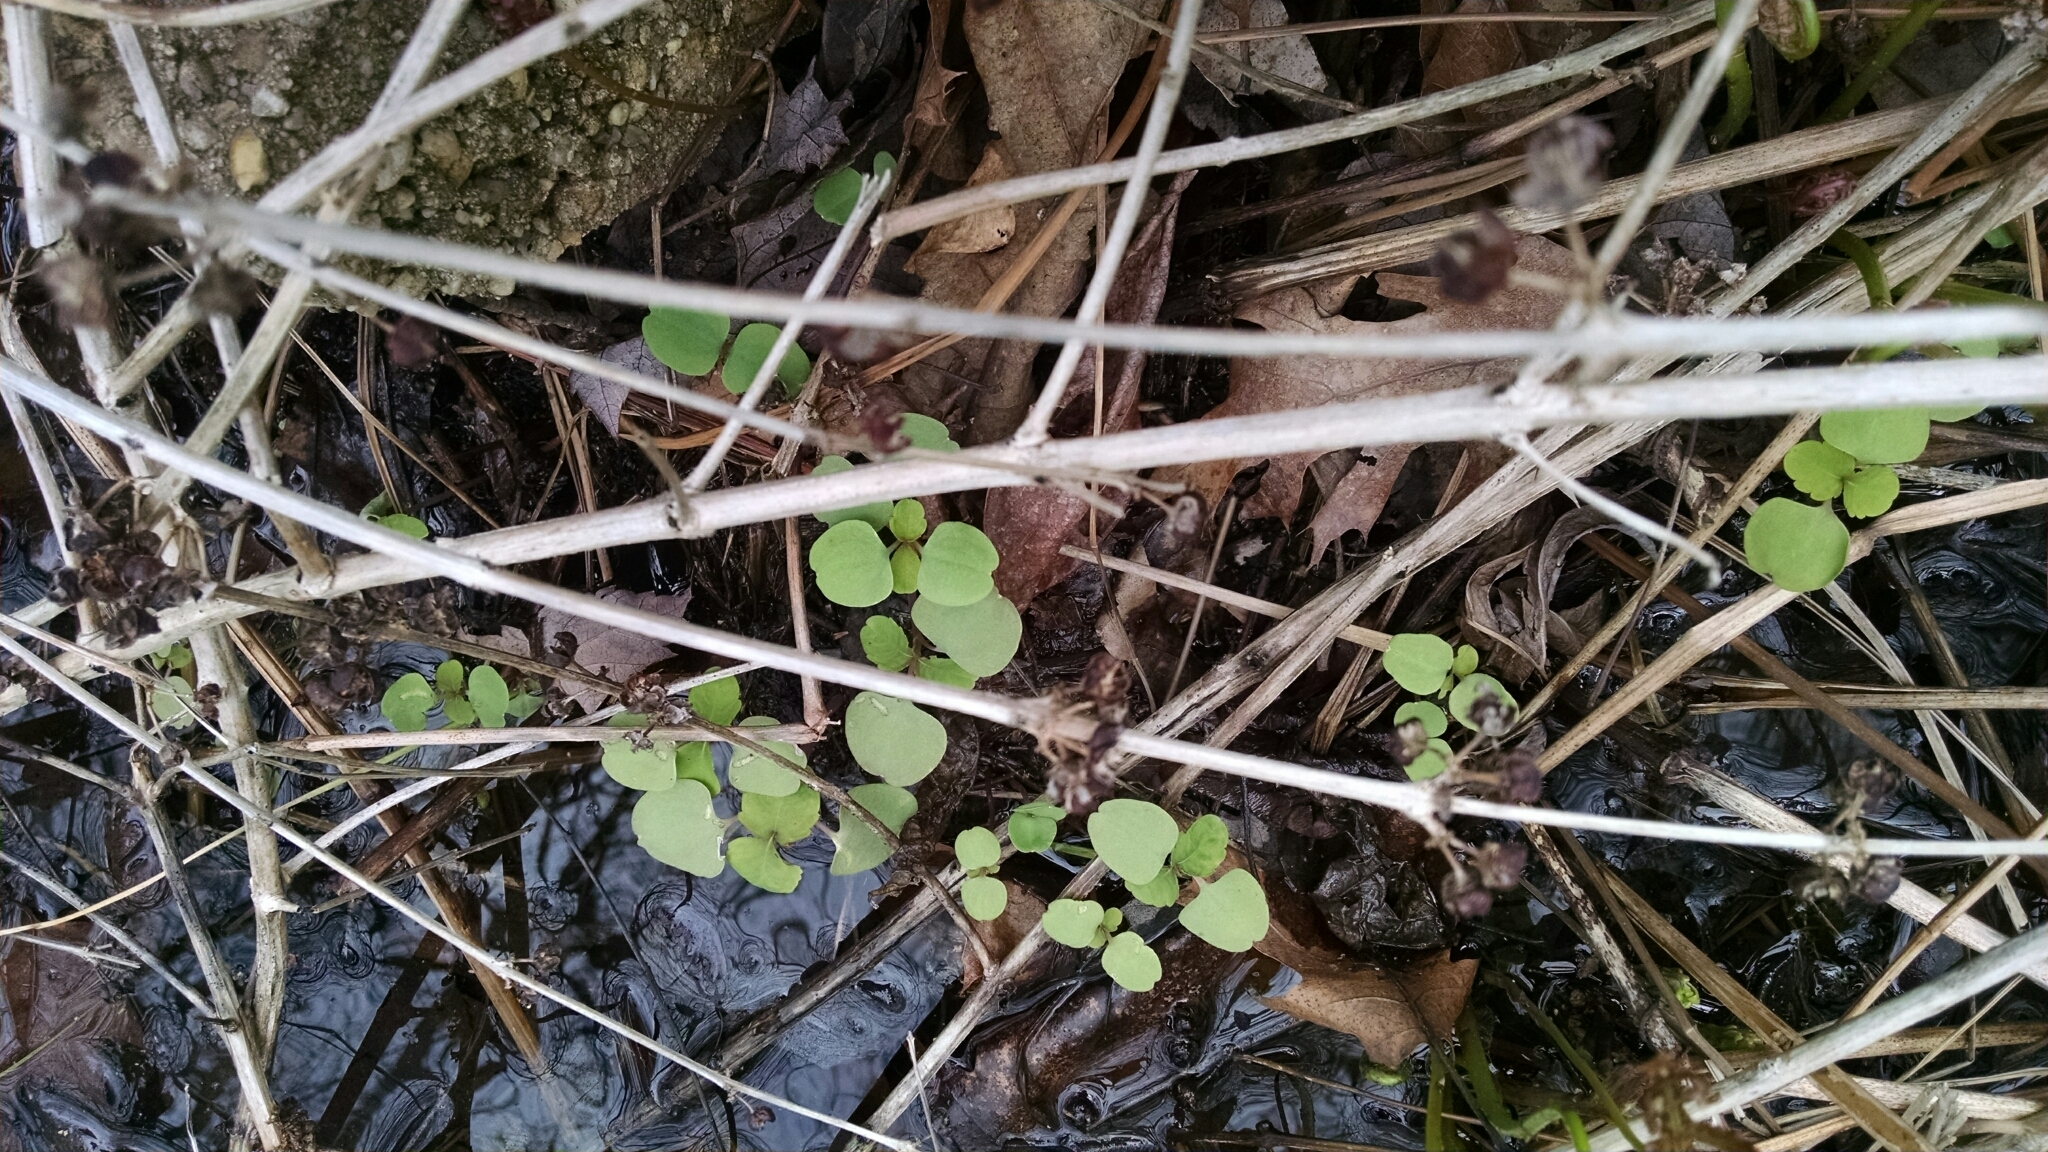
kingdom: Plantae
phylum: Tracheophyta
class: Magnoliopsida
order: Ericales
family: Balsaminaceae
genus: Impatiens
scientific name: Impatiens capensis
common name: Orange balsam
